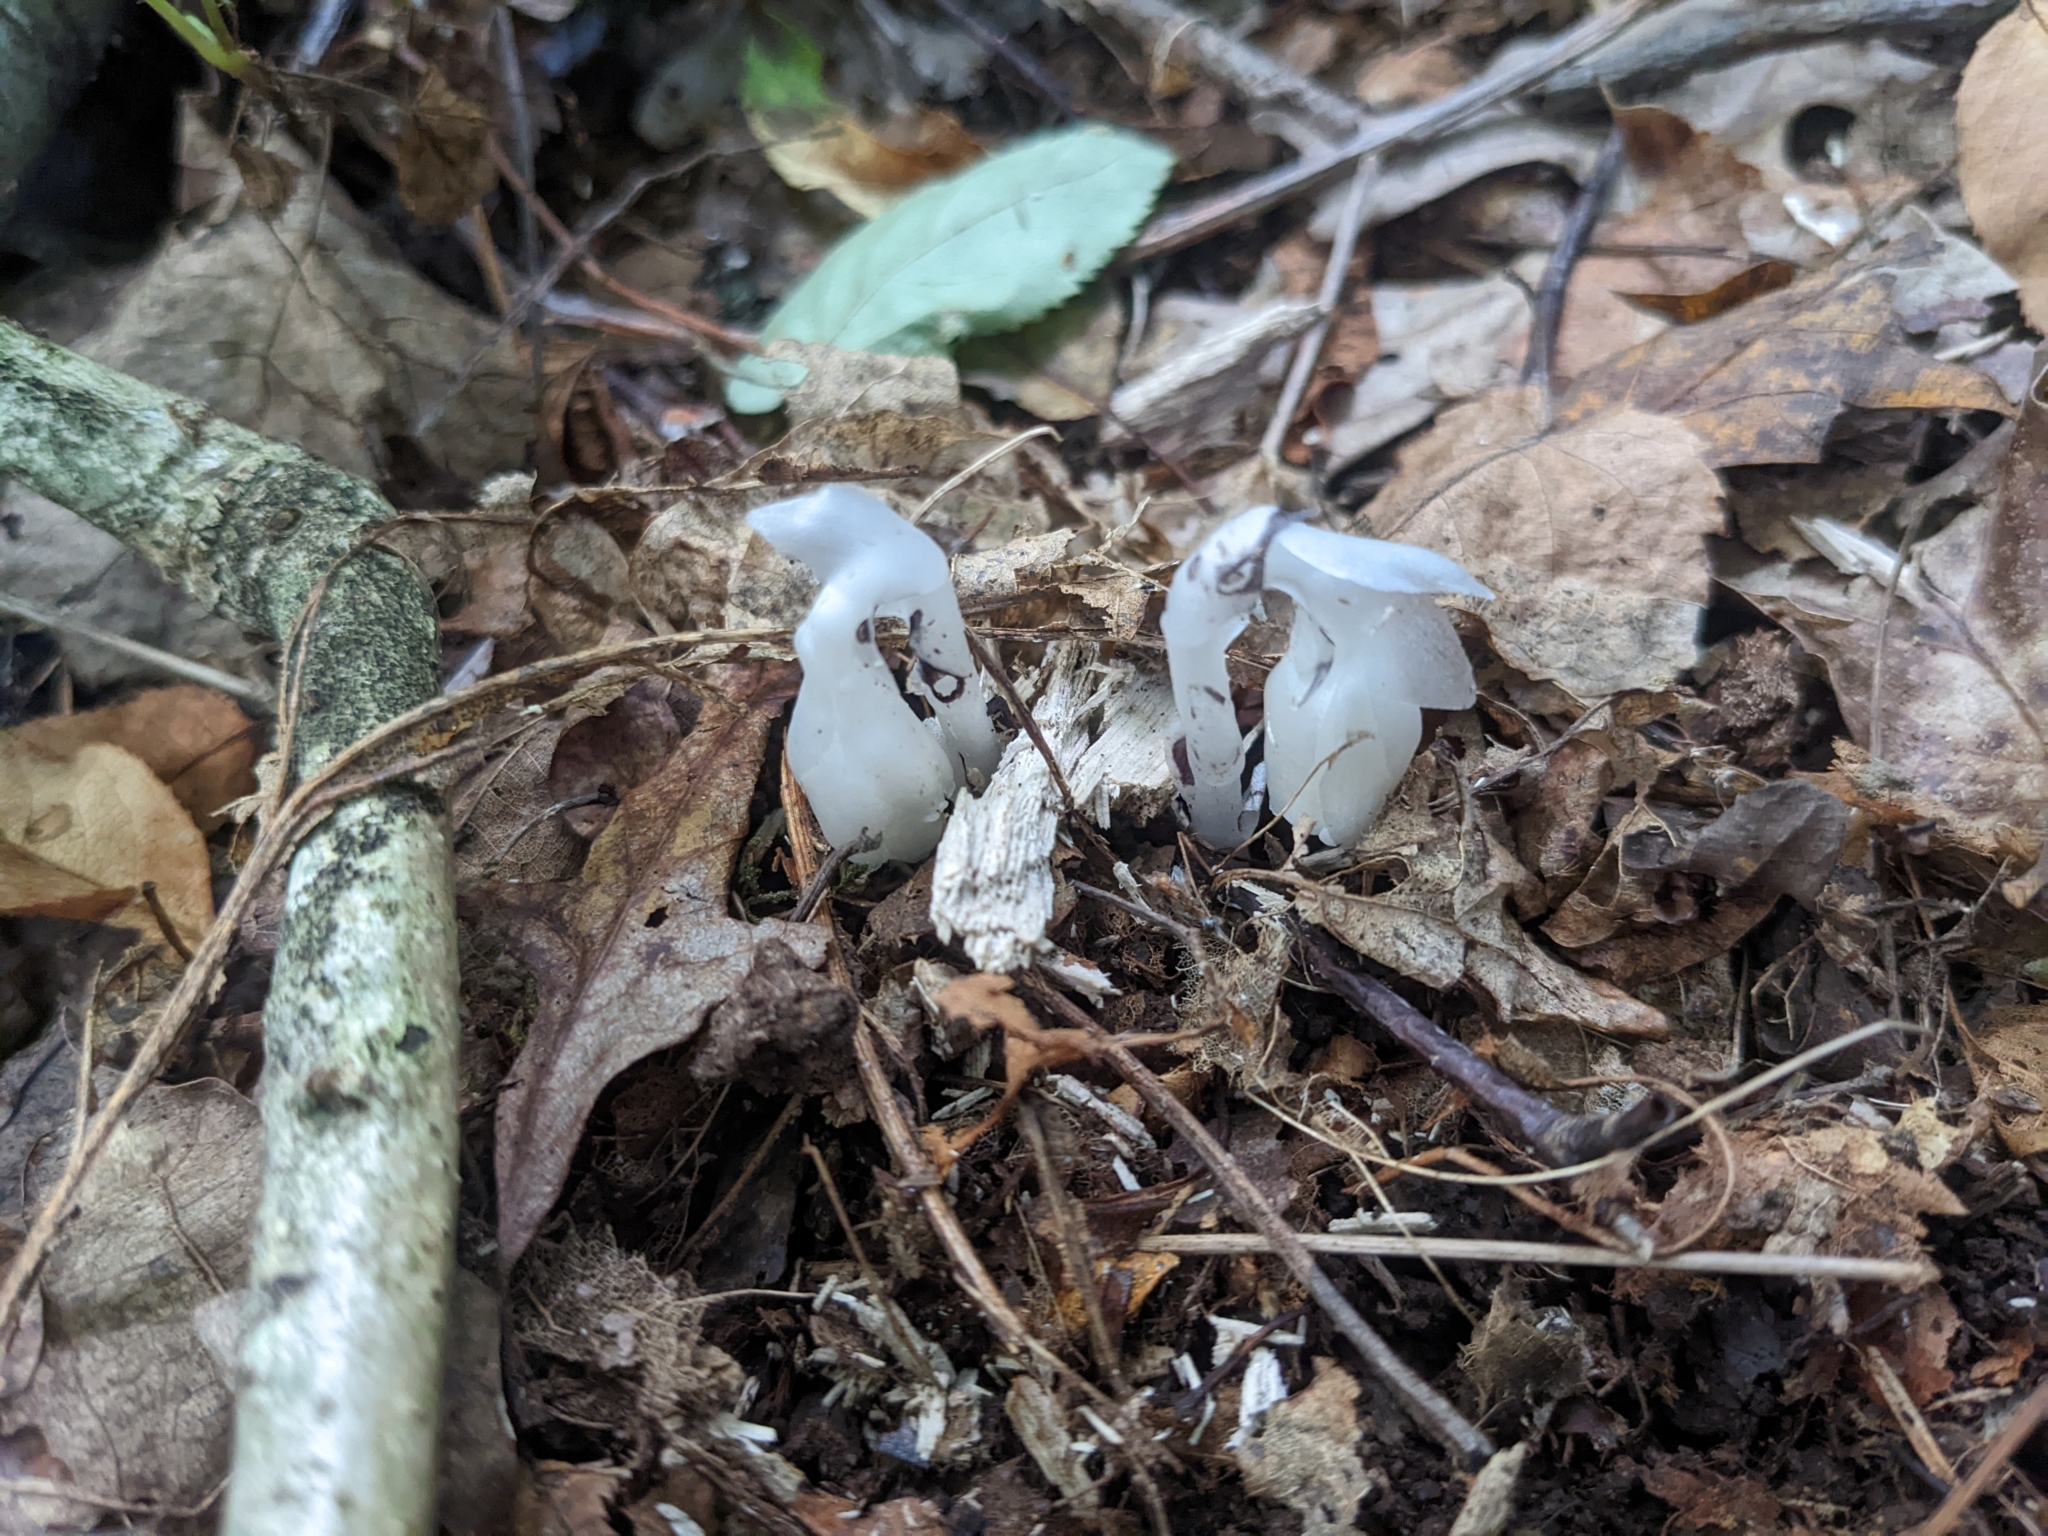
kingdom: Plantae
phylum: Tracheophyta
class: Magnoliopsida
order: Ericales
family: Ericaceae
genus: Monotropa
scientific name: Monotropa uniflora
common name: Convulsion root
